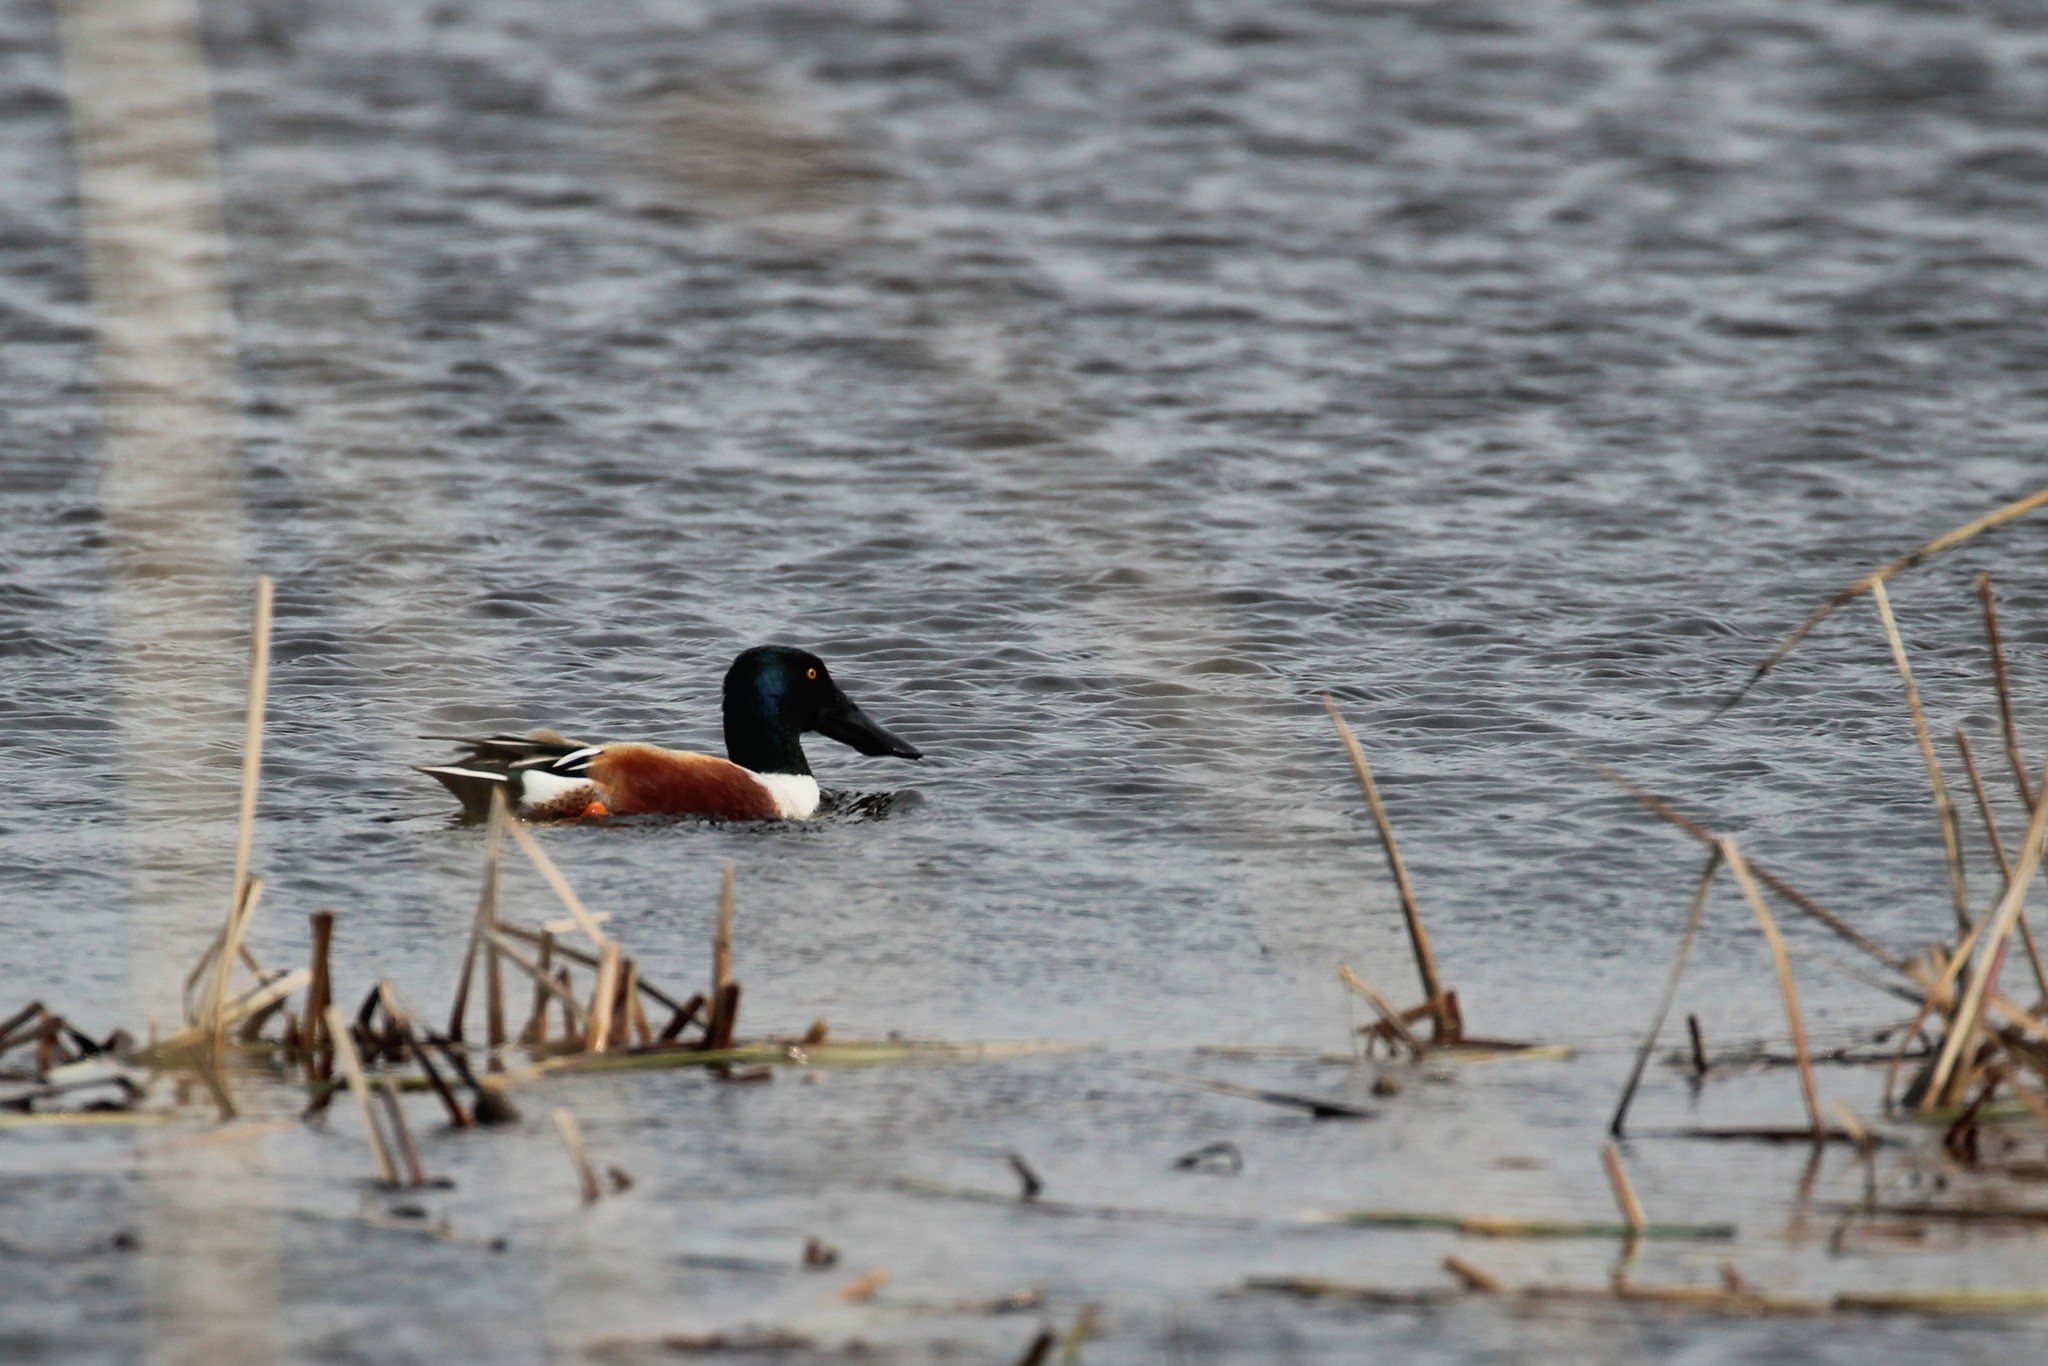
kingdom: Animalia
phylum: Chordata
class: Aves
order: Anseriformes
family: Anatidae
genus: Spatula
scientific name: Spatula clypeata
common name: Northern shoveler
